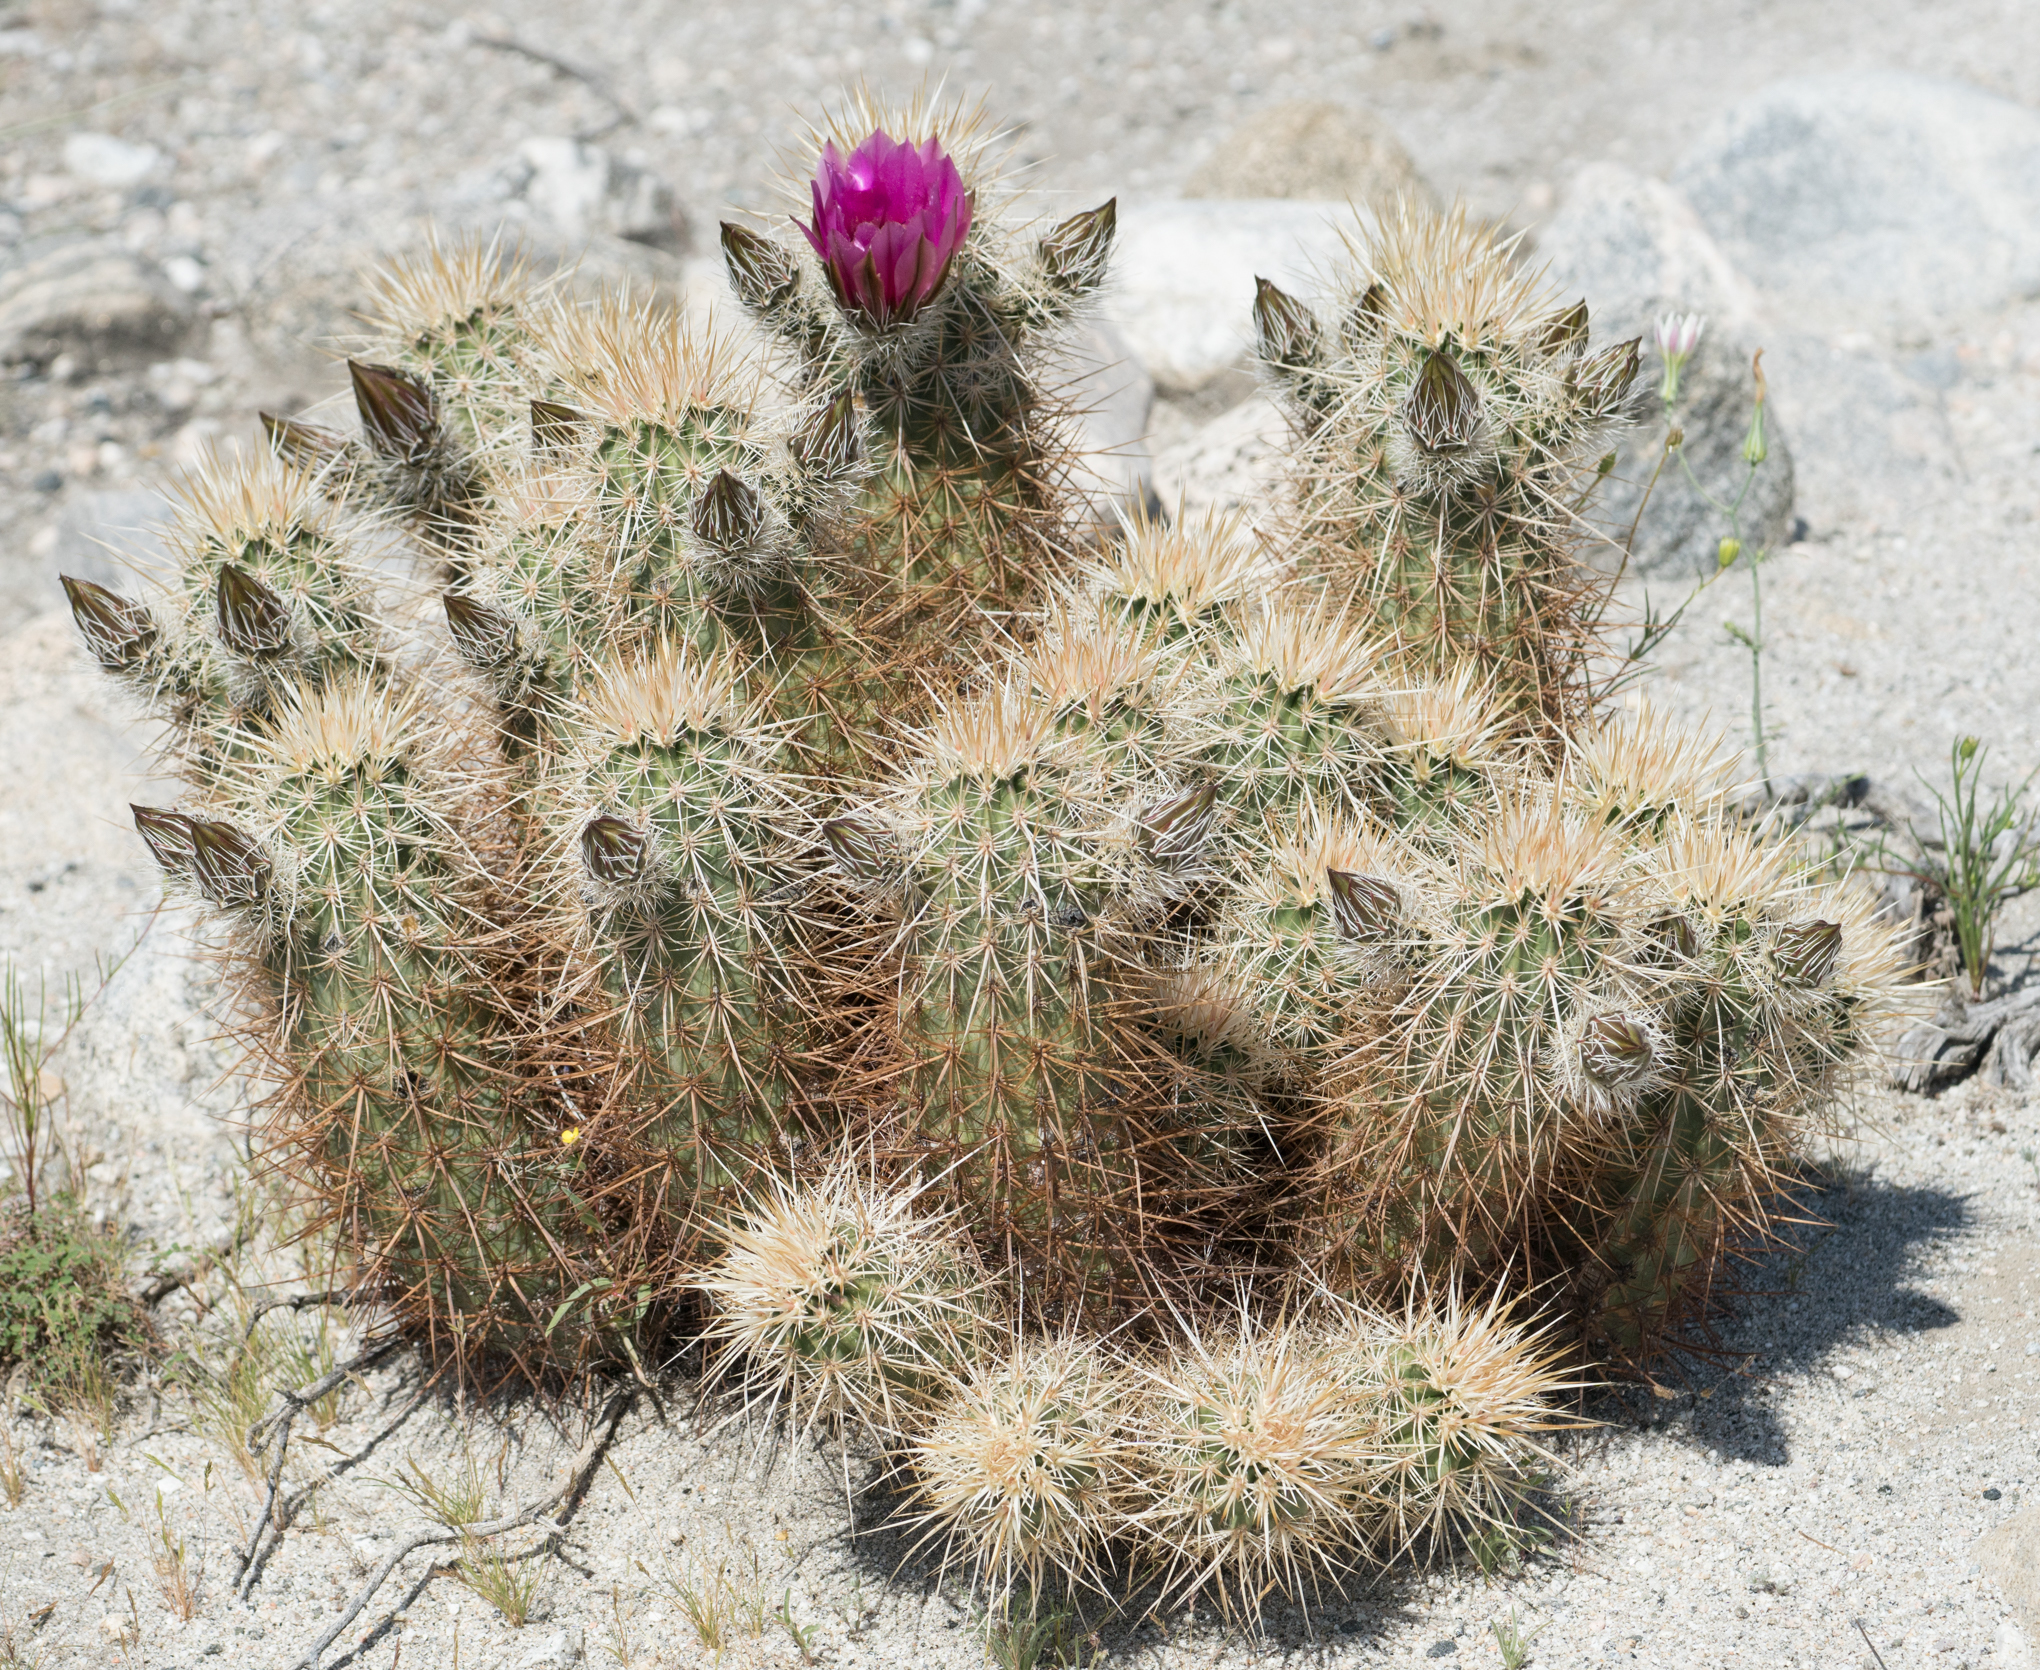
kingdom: Plantae
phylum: Tracheophyta
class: Magnoliopsida
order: Caryophyllales
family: Cactaceae
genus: Echinocereus
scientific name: Echinocereus engelmannii
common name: Engelmann's hedgehog cactus
